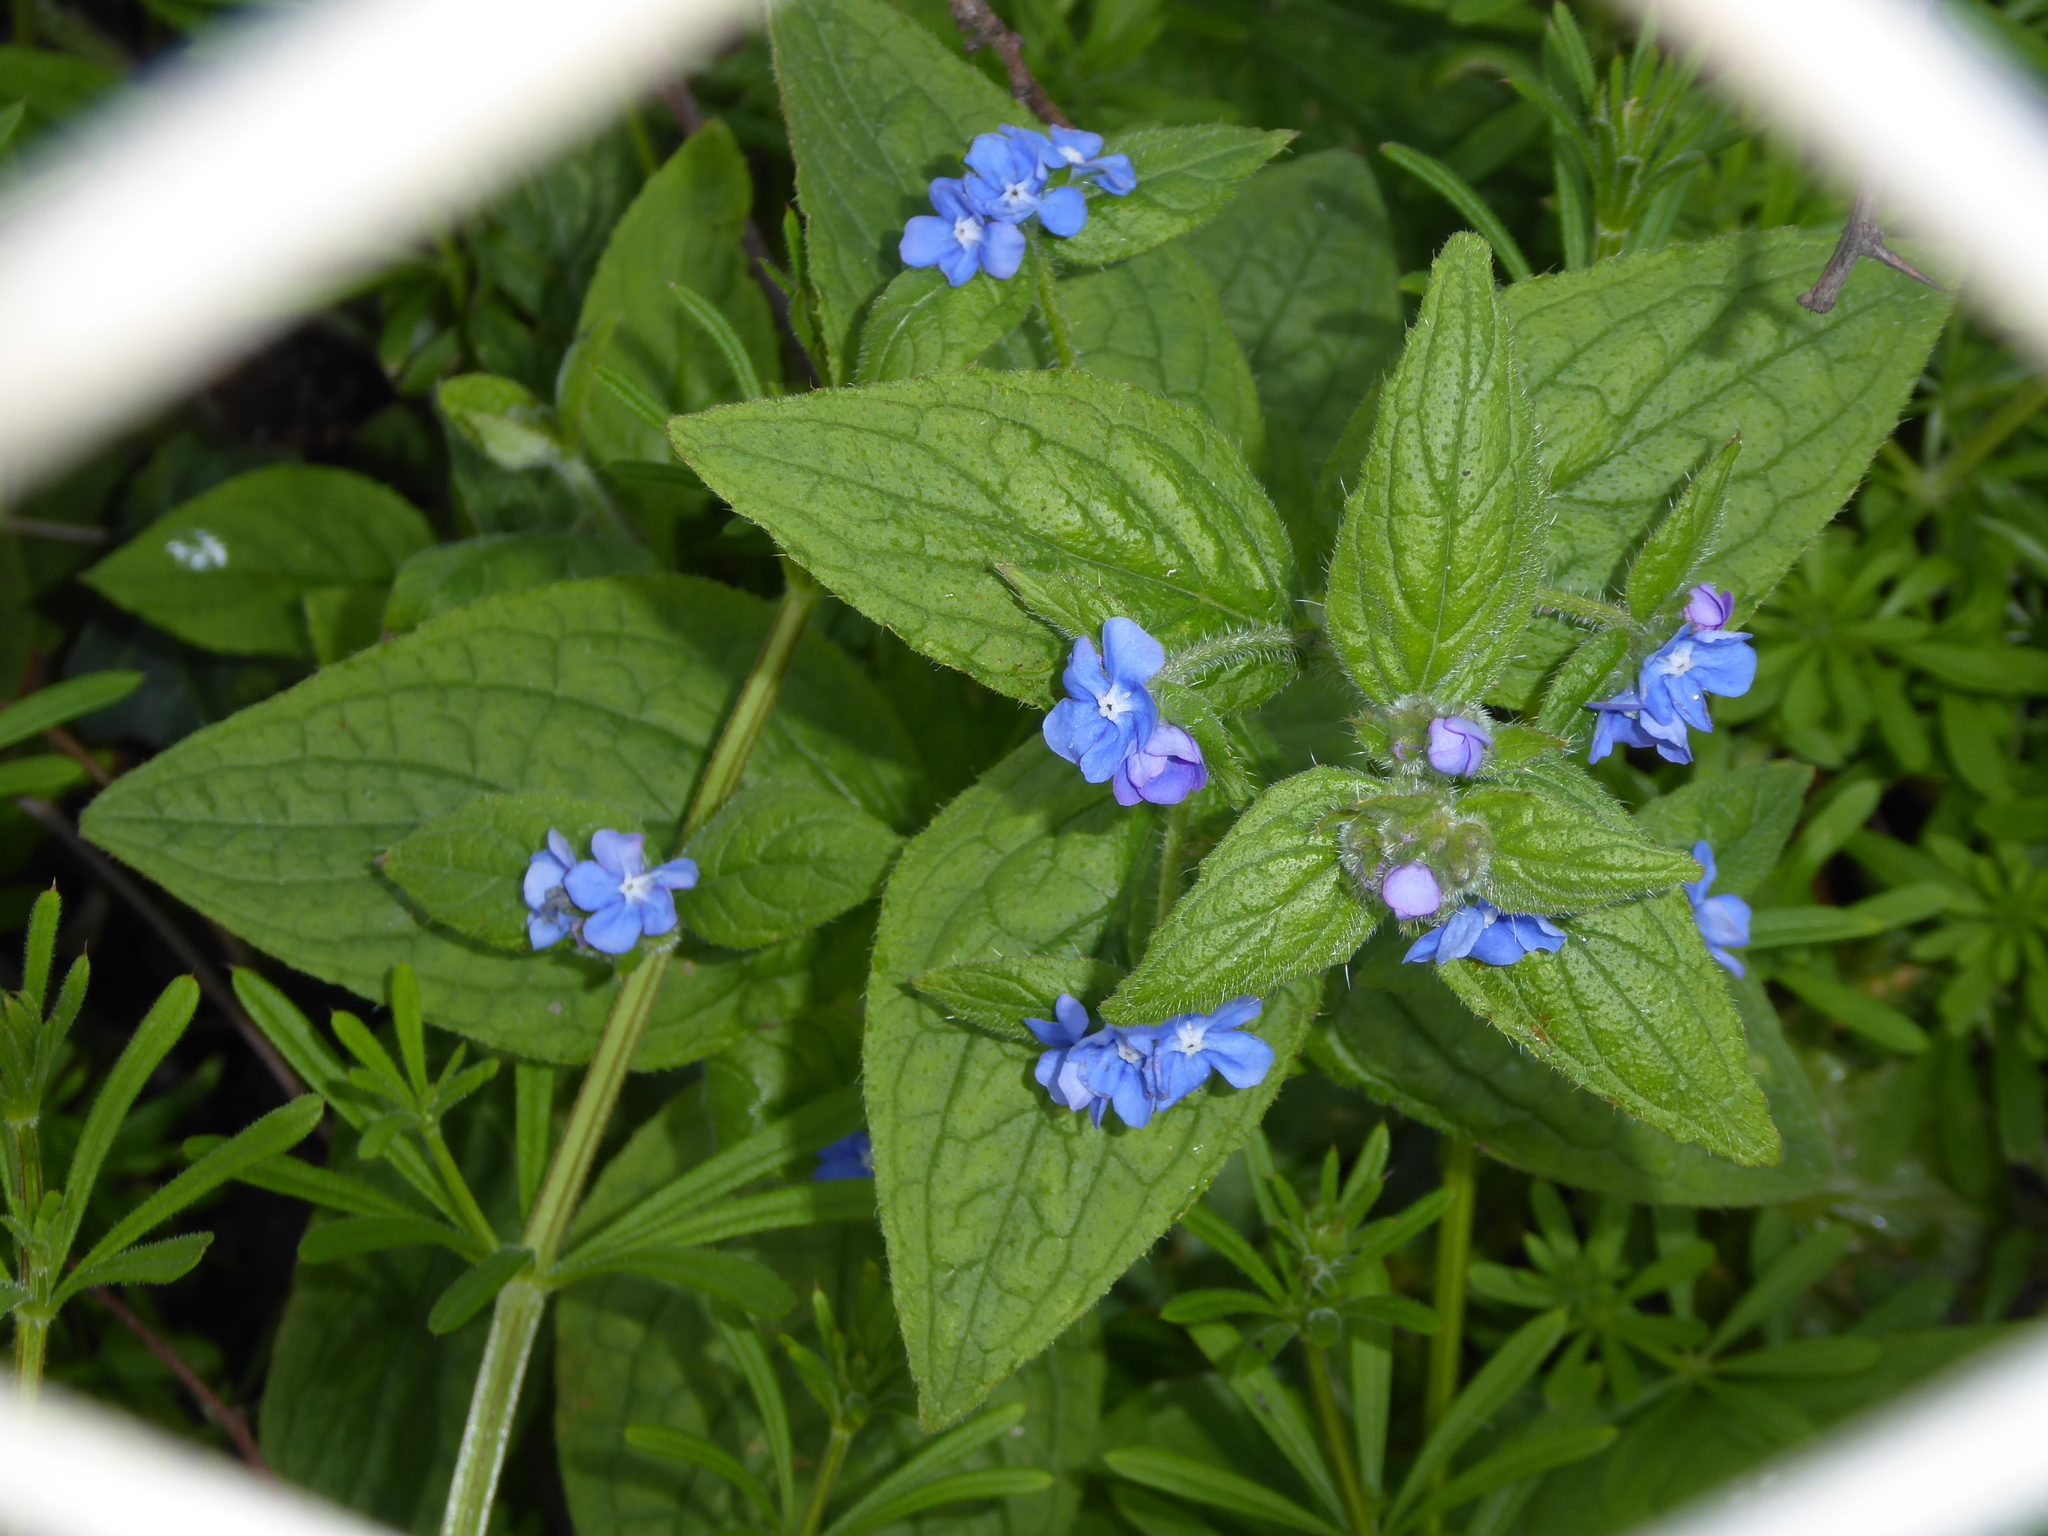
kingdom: Plantae
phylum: Tracheophyta
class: Magnoliopsida
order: Boraginales
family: Boraginaceae
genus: Pentaglottis
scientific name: Pentaglottis sempervirens
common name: Green alkanet
